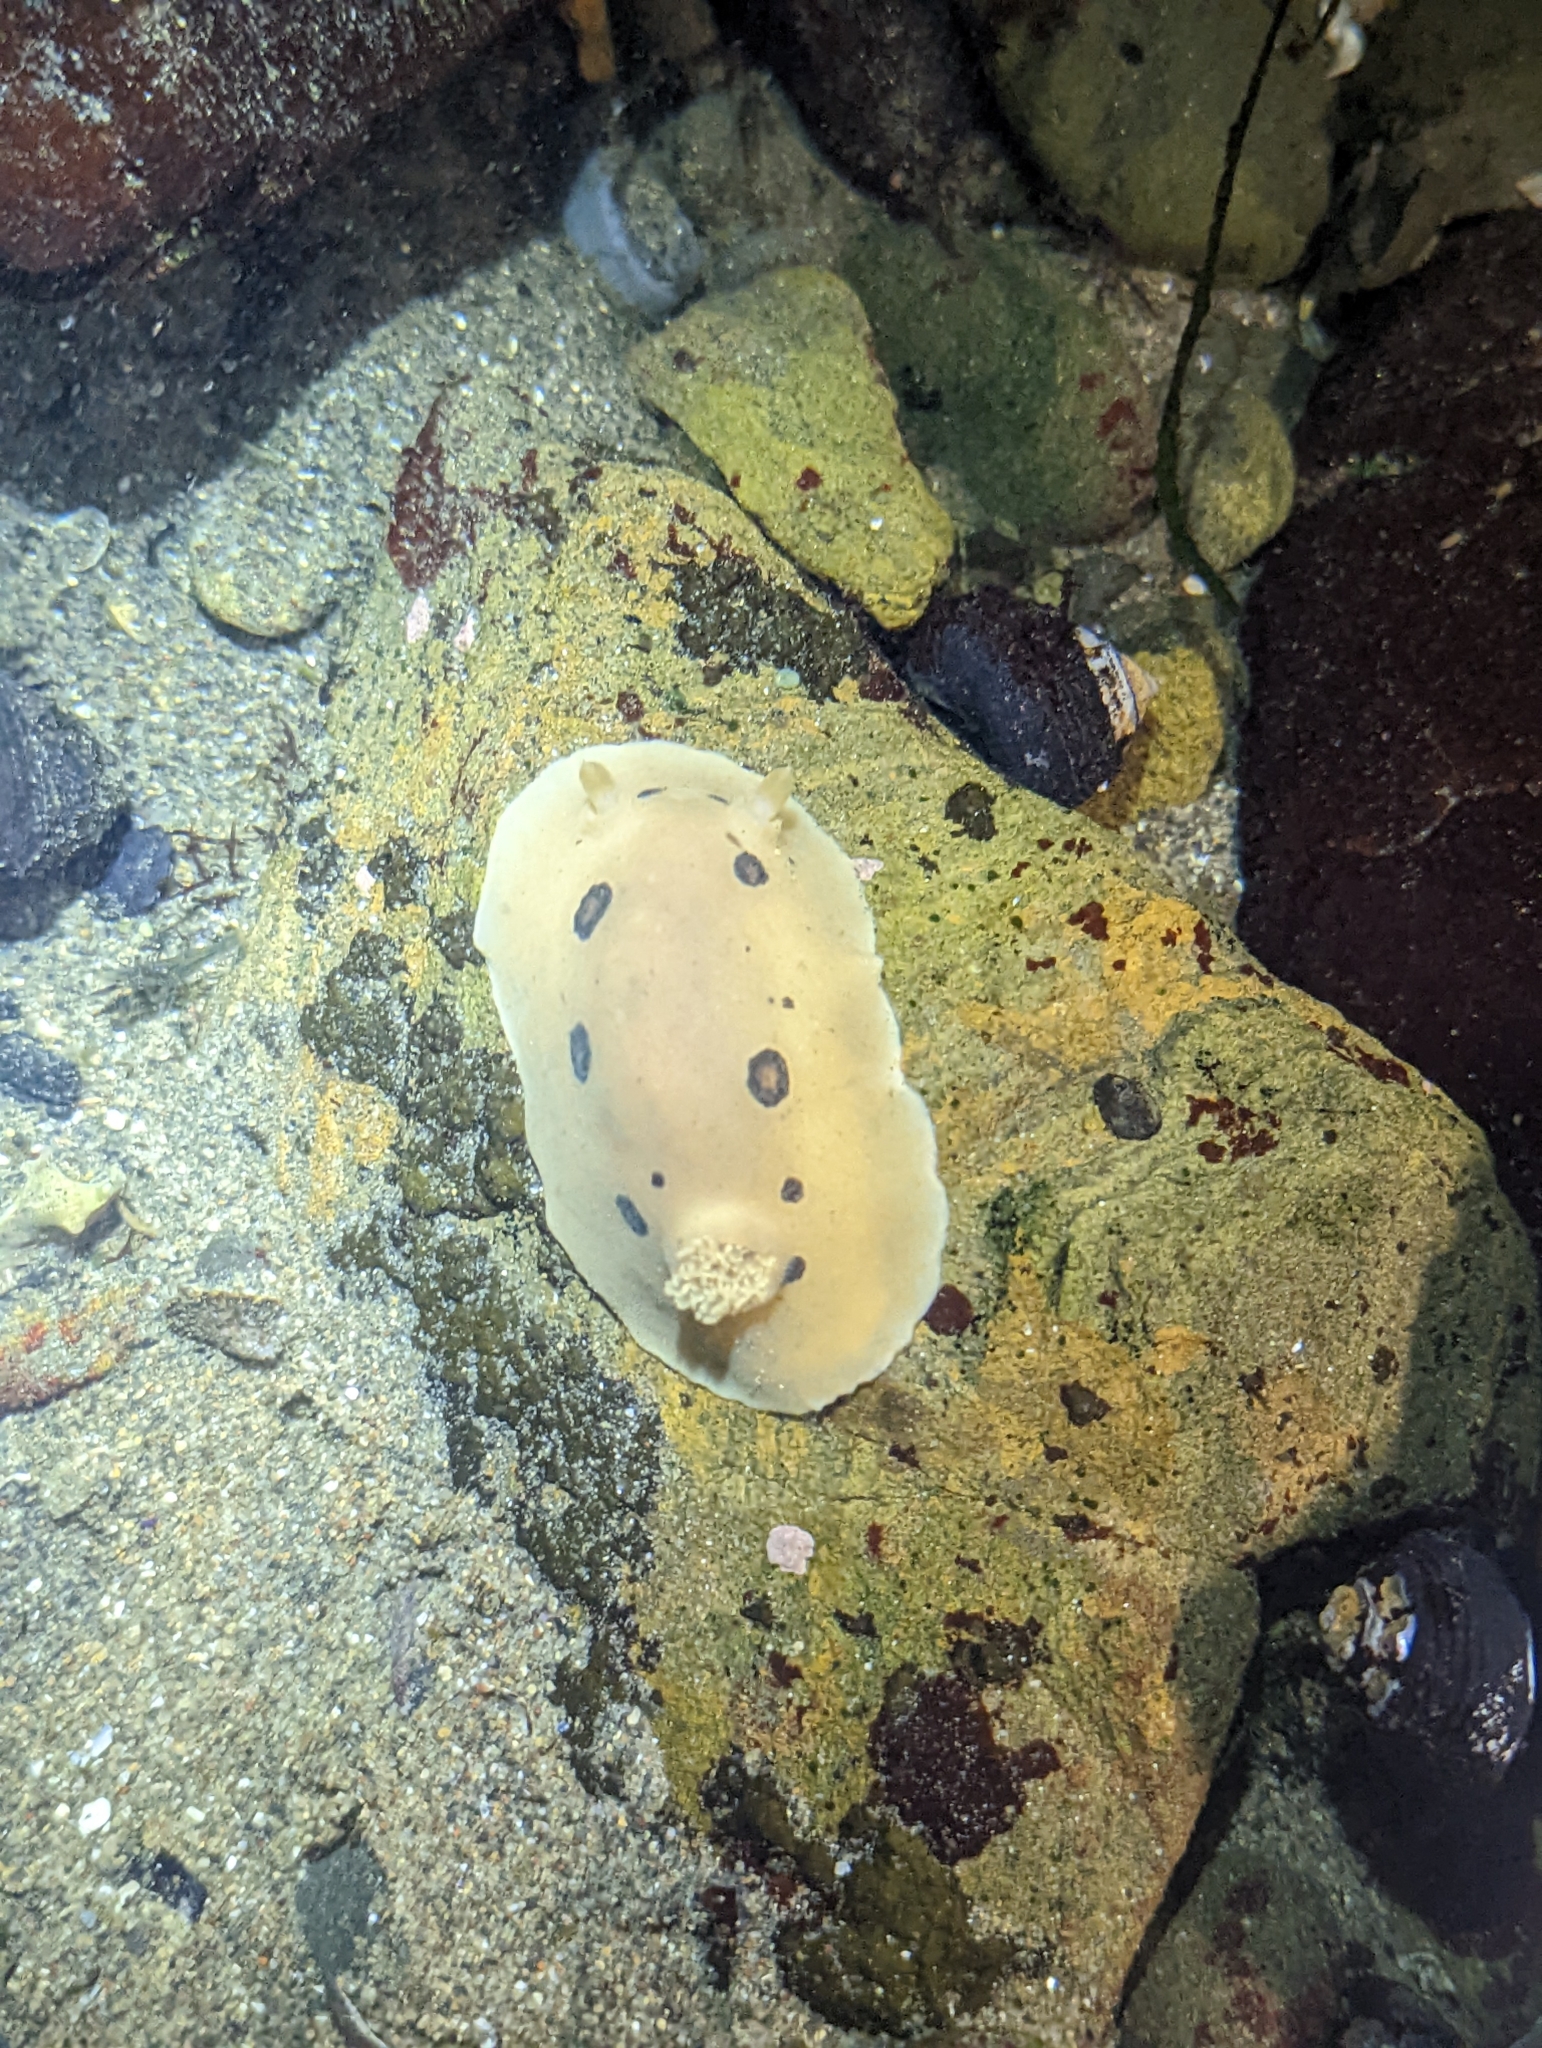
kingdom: Animalia
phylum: Mollusca
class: Gastropoda
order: Nudibranchia
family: Discodorididae
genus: Diaulula
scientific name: Diaulula sandiegensis
